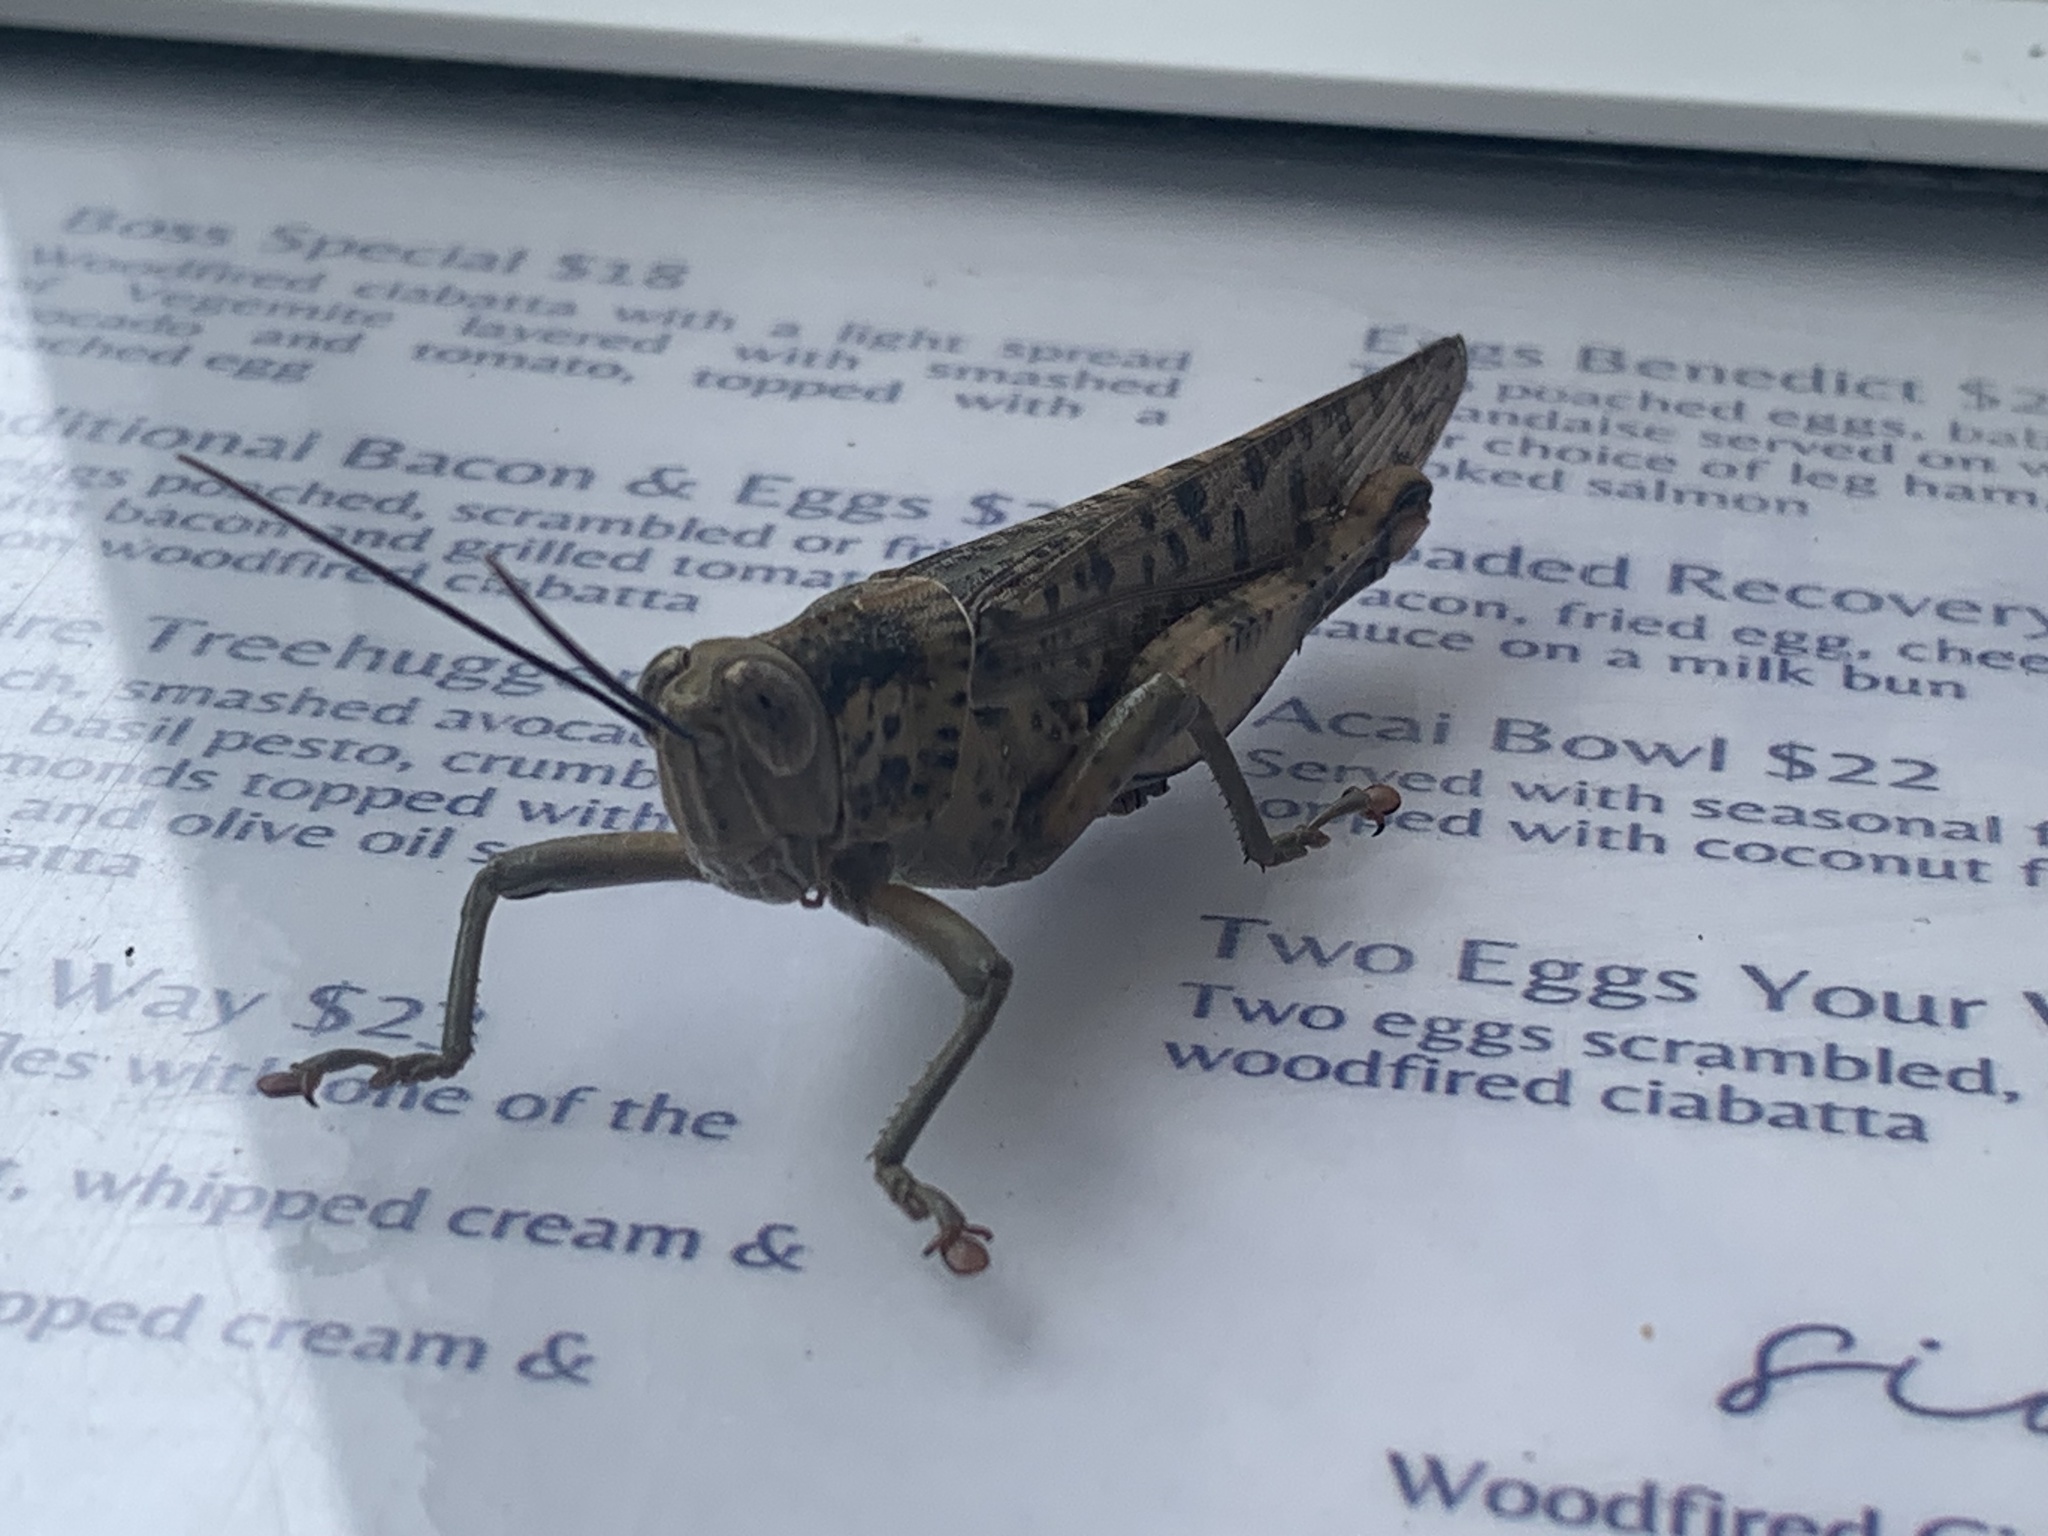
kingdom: Animalia
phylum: Arthropoda
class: Insecta
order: Orthoptera
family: Acrididae
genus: Valanga
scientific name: Valanga irregularis
